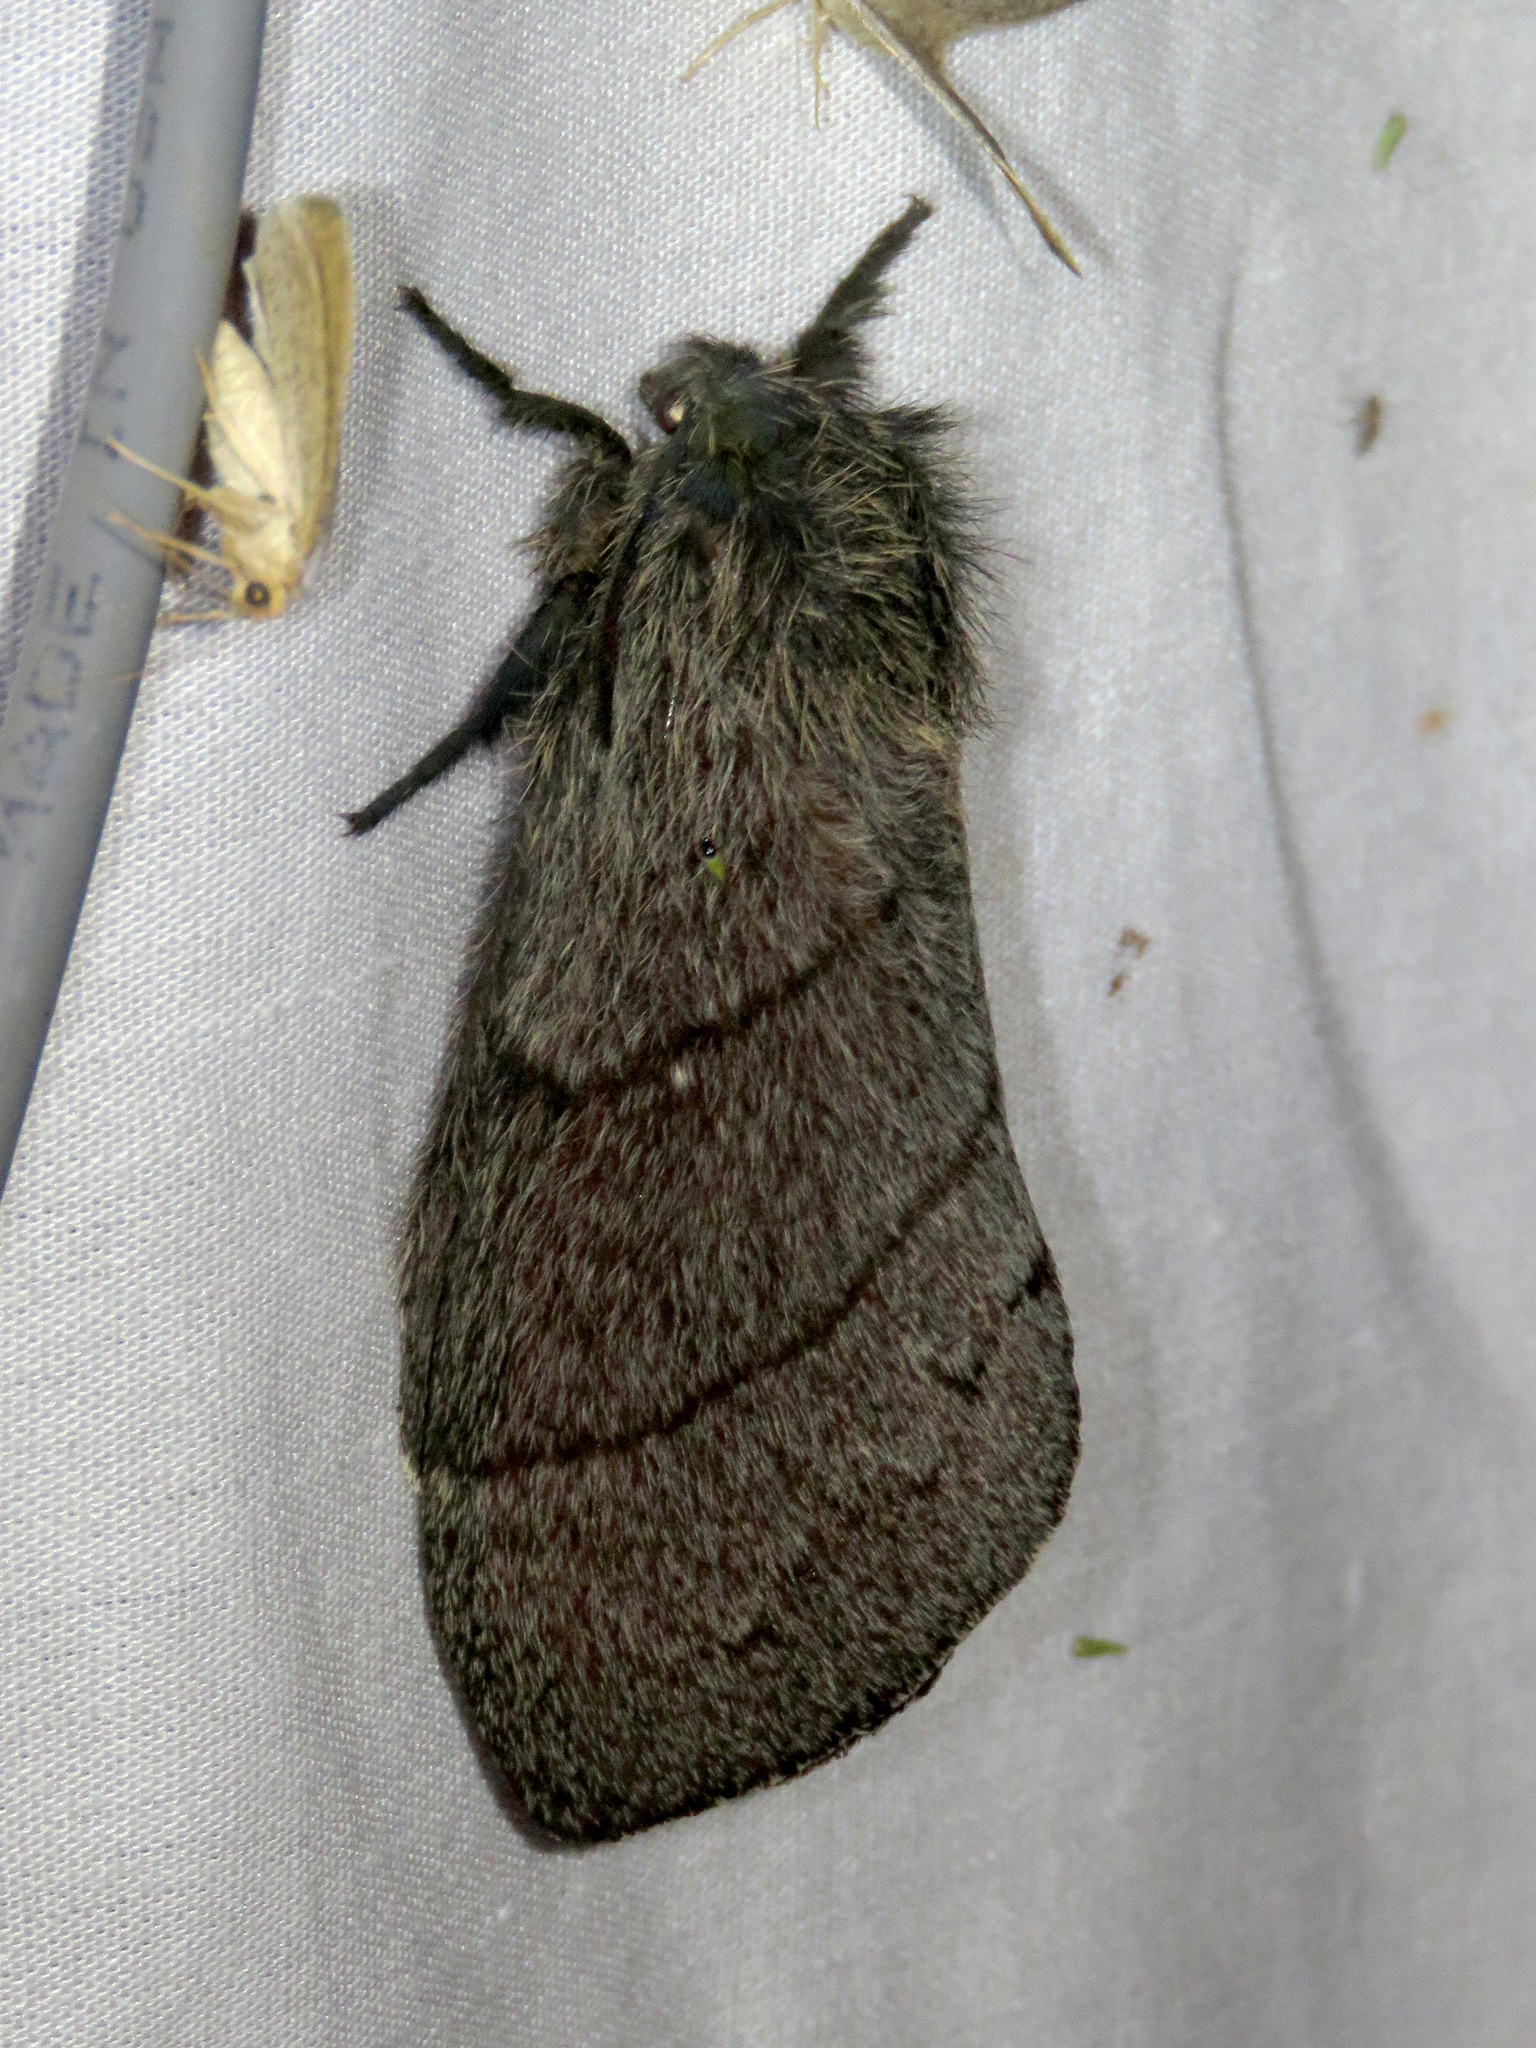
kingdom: Animalia
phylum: Arthropoda
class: Insecta
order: Lepidoptera
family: Lasiocampidae
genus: Gloveria
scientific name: Gloveria gargamelle
